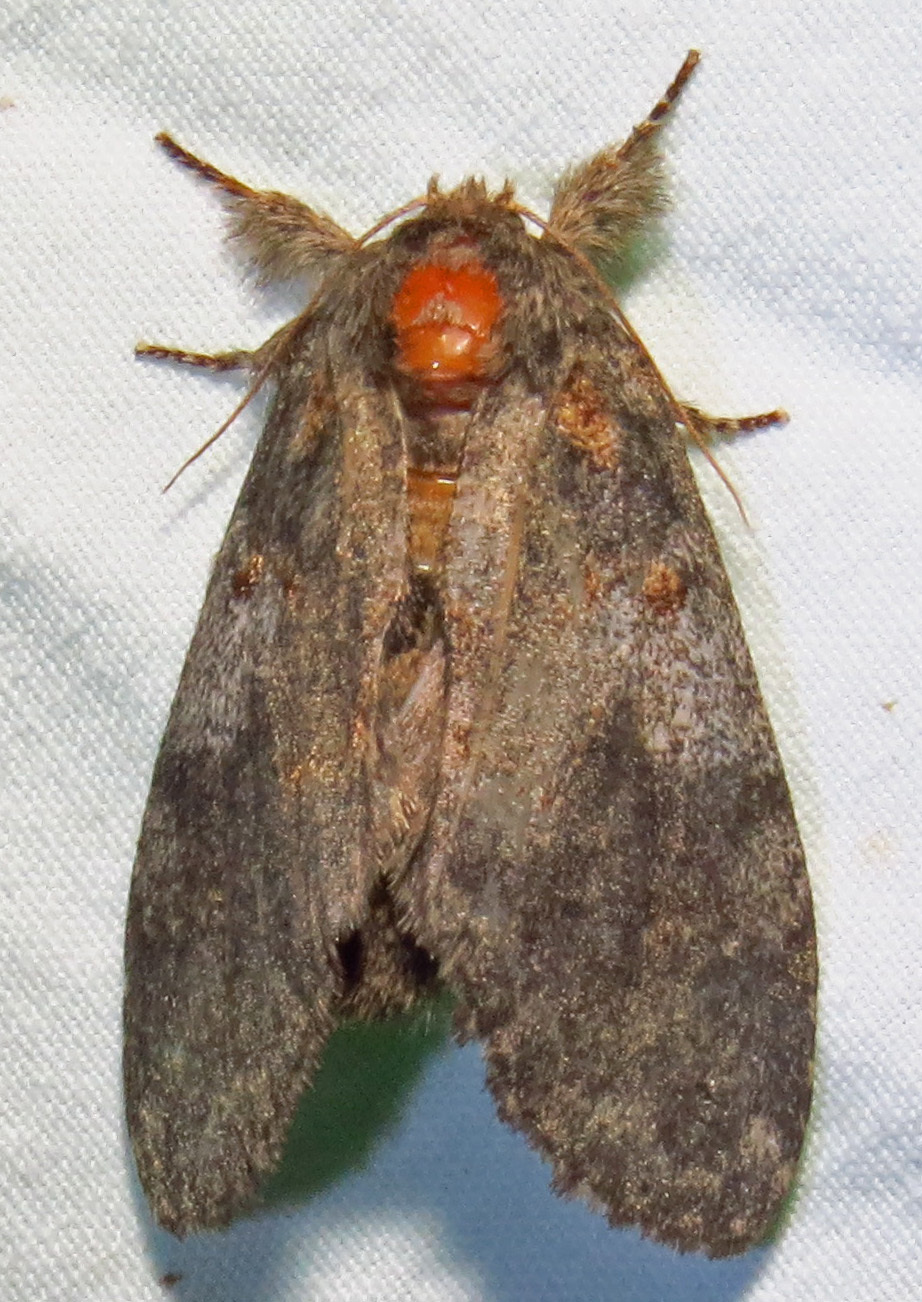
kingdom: Animalia
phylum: Arthropoda
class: Insecta
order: Lepidoptera
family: Notodontidae
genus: Peridea
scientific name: Peridea angulosa
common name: Angulose prominent
